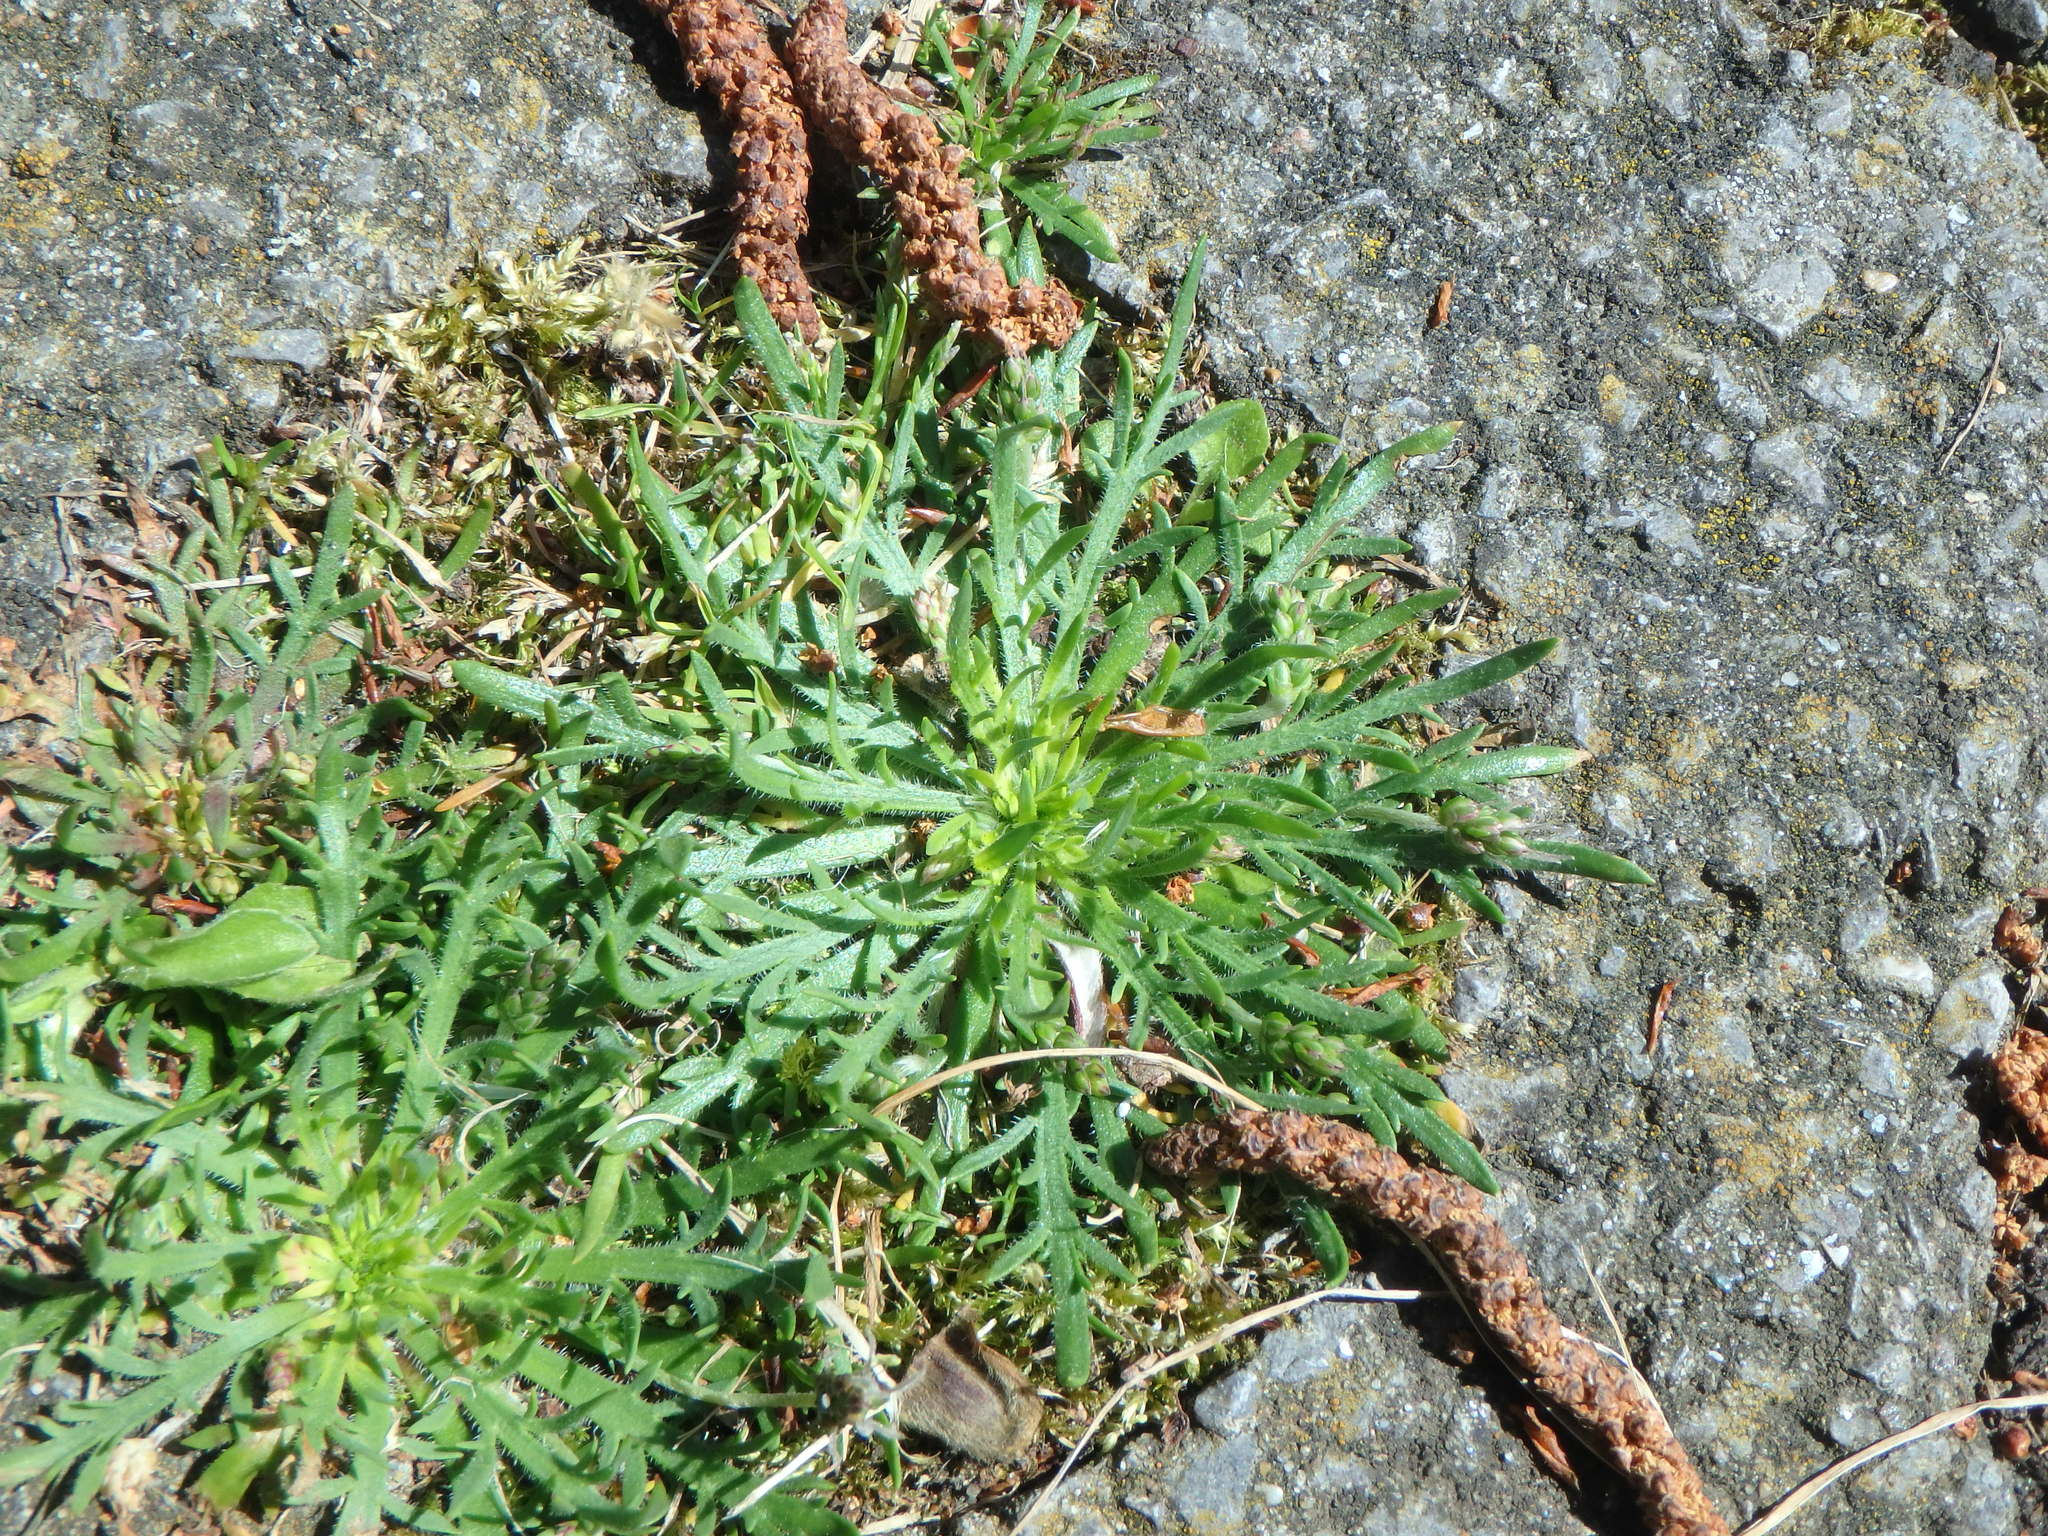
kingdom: Plantae
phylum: Tracheophyta
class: Magnoliopsida
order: Lamiales
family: Plantaginaceae
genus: Plantago
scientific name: Plantago coronopus
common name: Buck's-horn plantain
